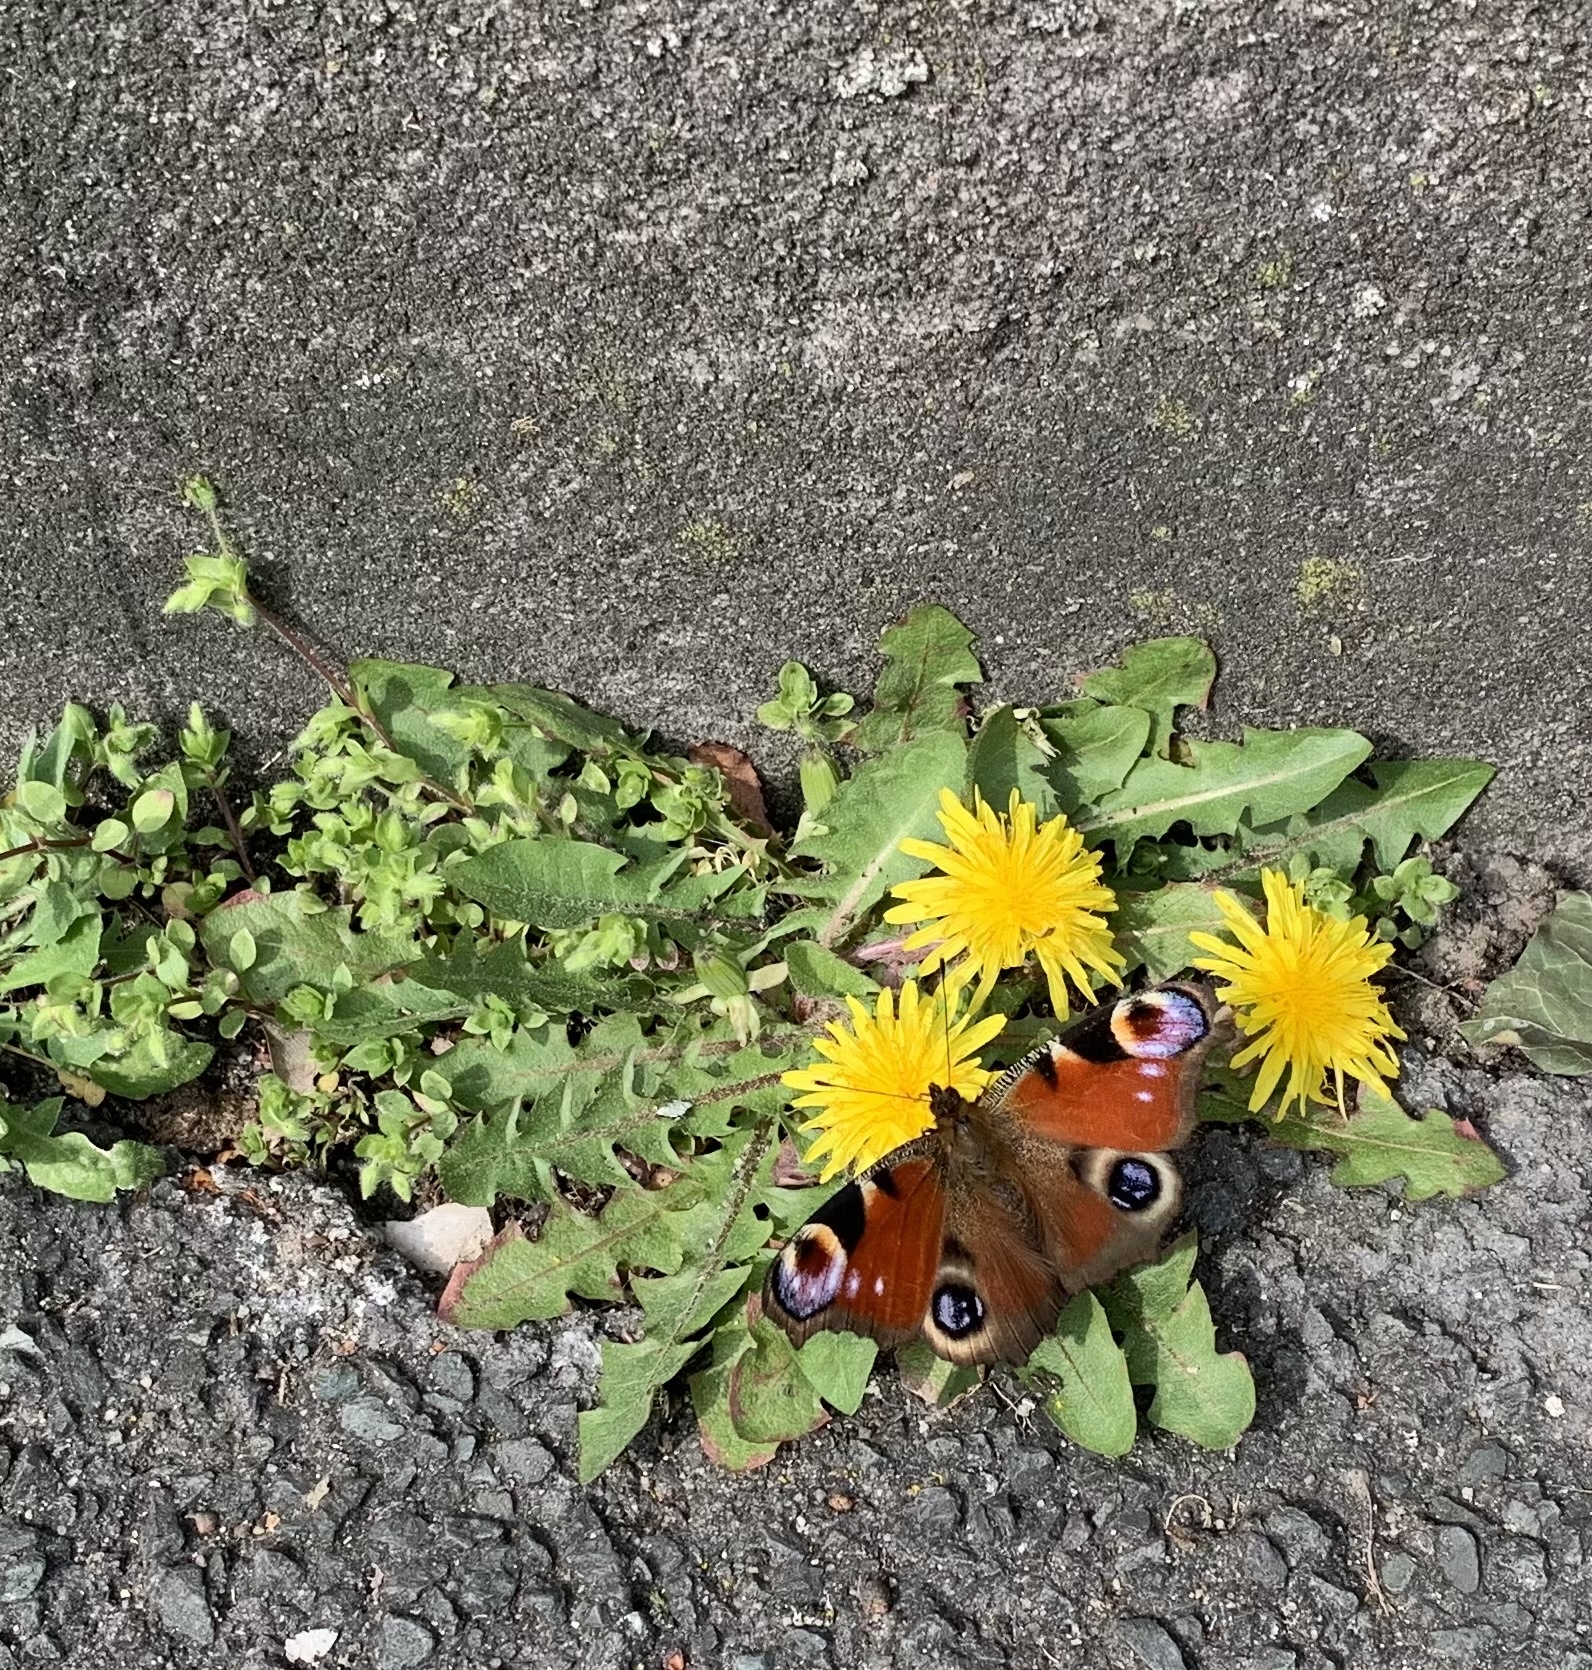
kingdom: Animalia
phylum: Arthropoda
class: Insecta
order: Lepidoptera
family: Nymphalidae
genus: Aglais
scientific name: Aglais io
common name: Peacock
